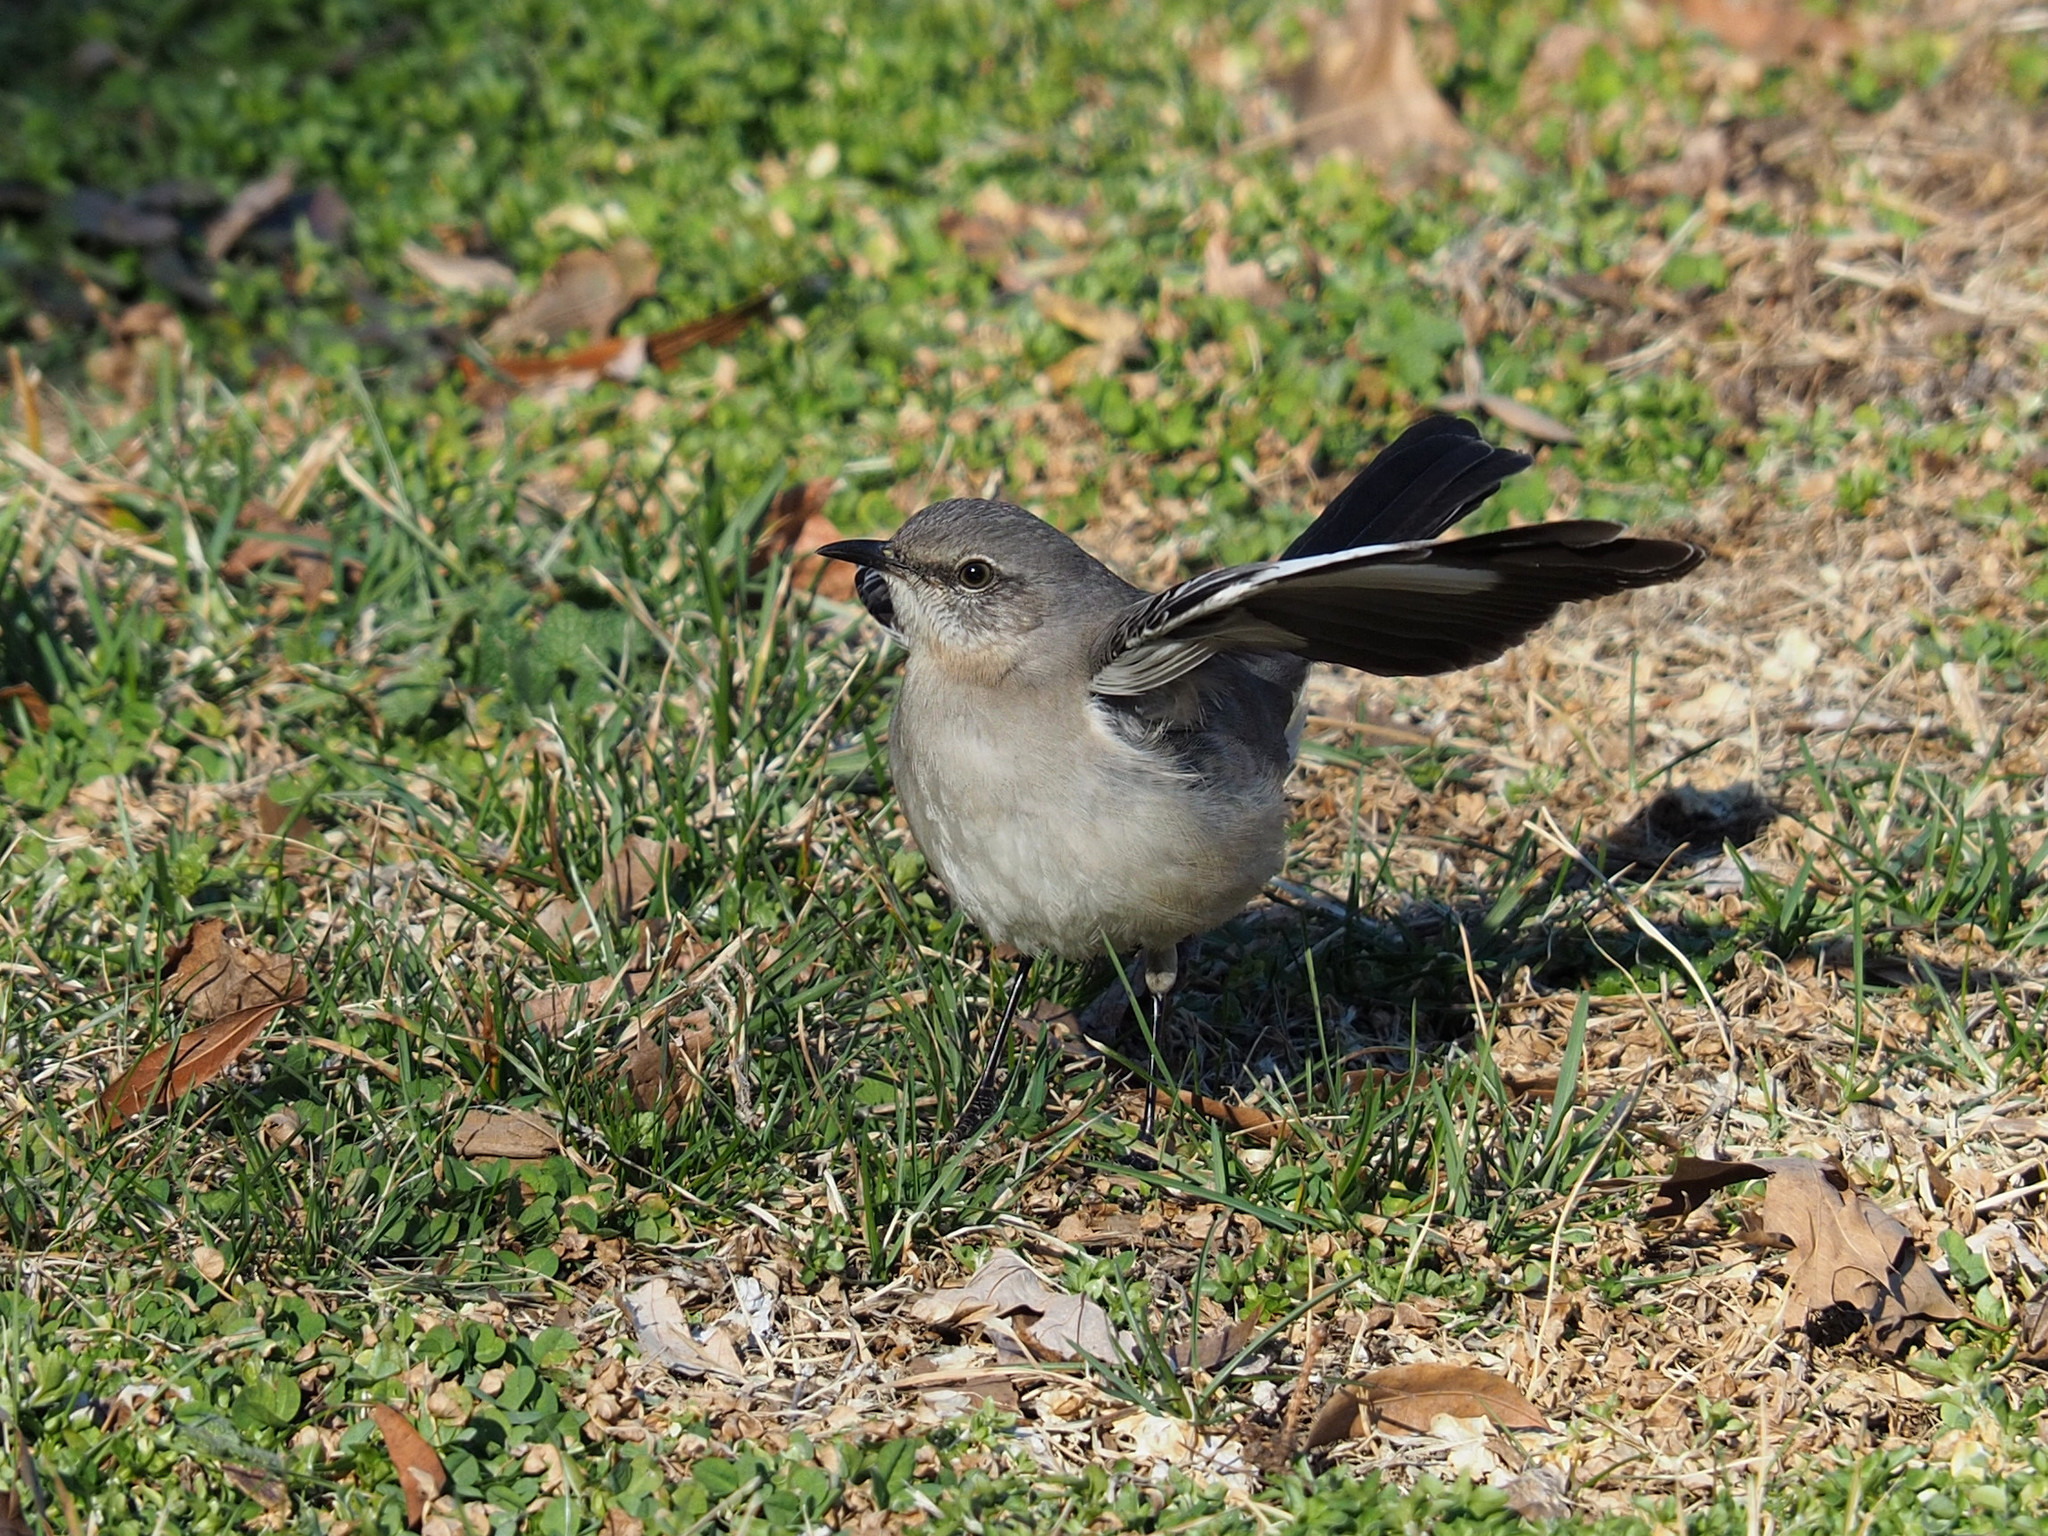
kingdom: Animalia
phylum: Chordata
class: Aves
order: Passeriformes
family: Mimidae
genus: Mimus
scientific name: Mimus polyglottos
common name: Northern mockingbird
